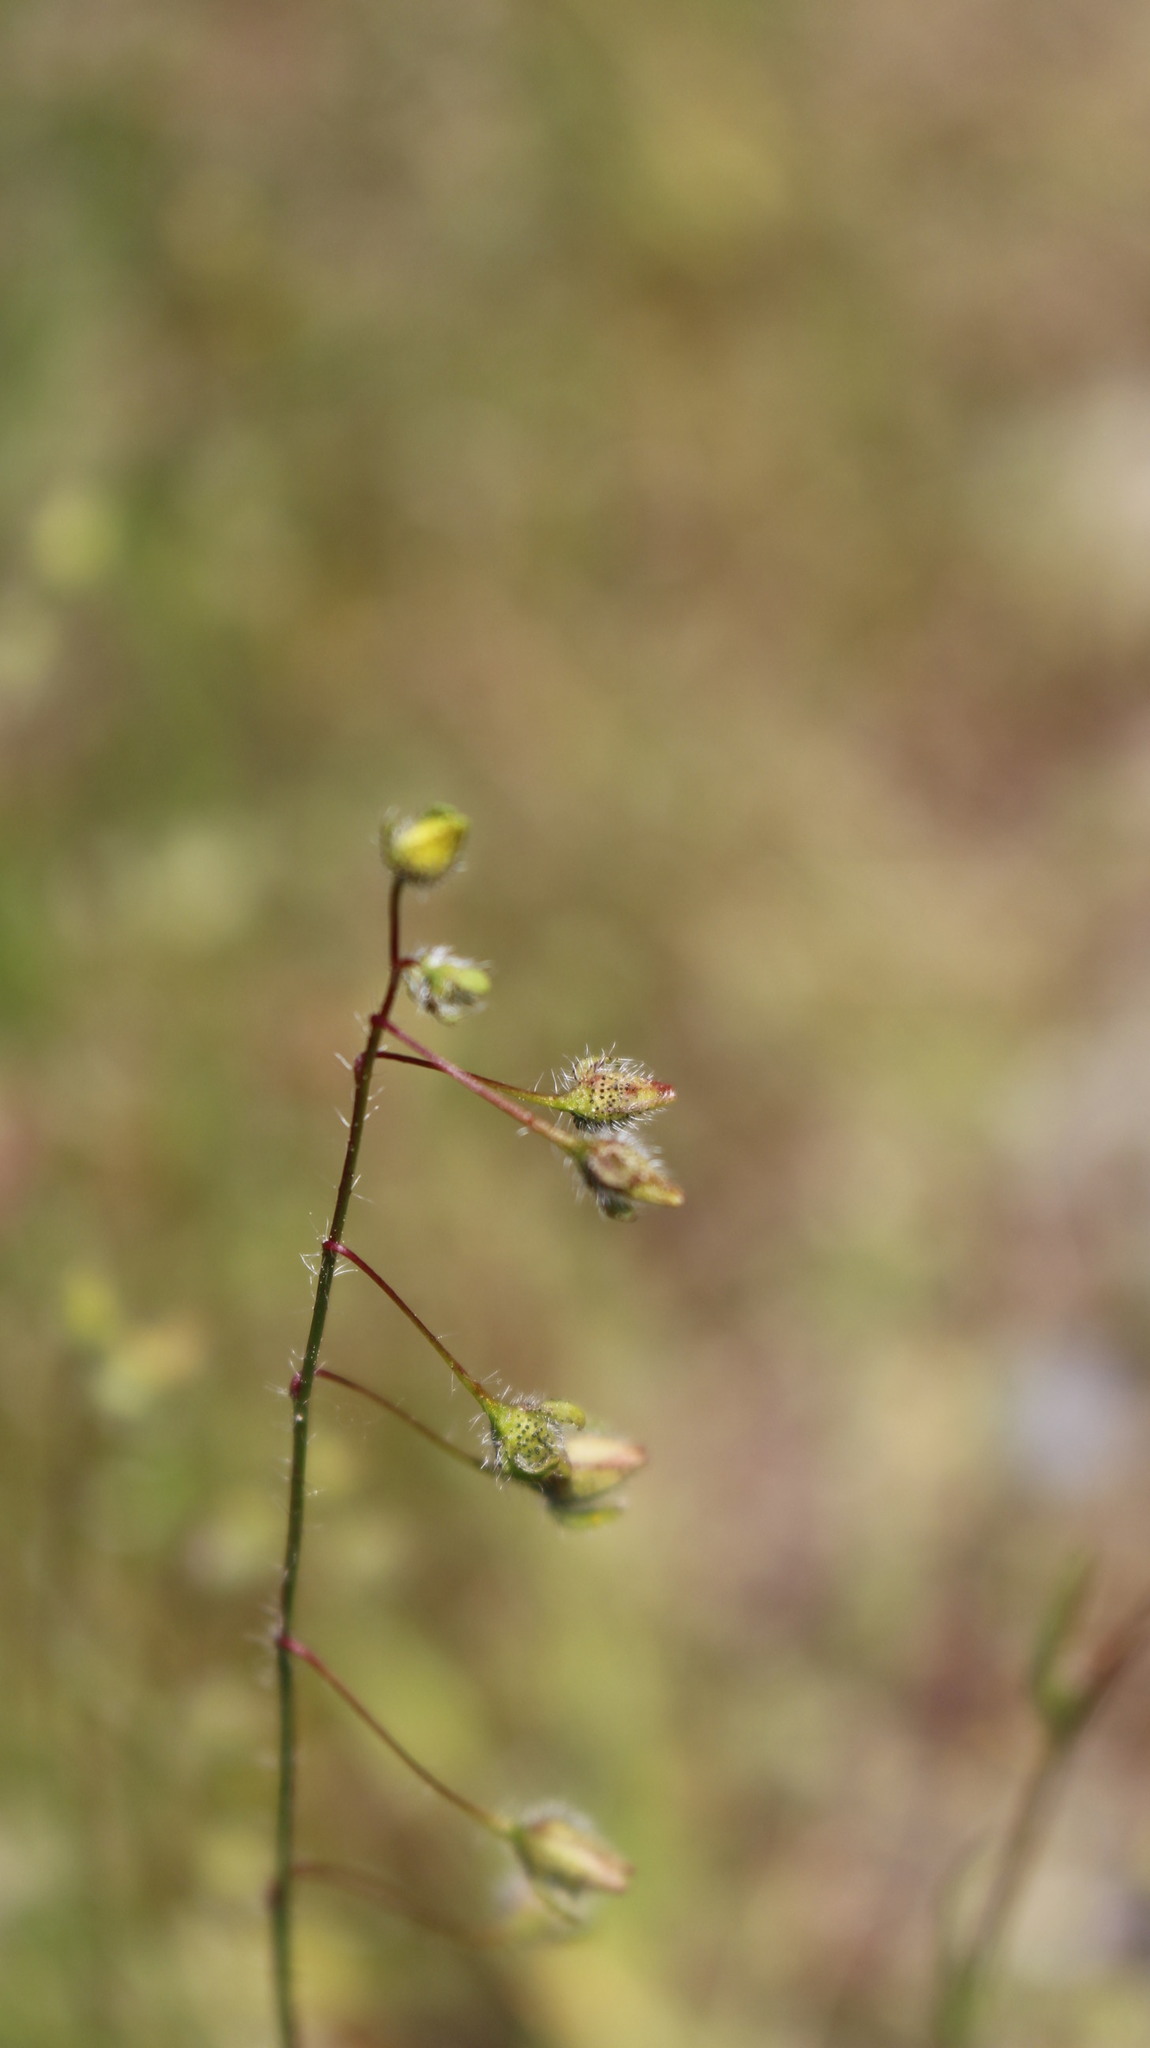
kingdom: Plantae
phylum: Tracheophyta
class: Magnoliopsida
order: Malvales
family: Cistaceae
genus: Tuberaria
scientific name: Tuberaria guttata
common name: Spotted rock-rose
